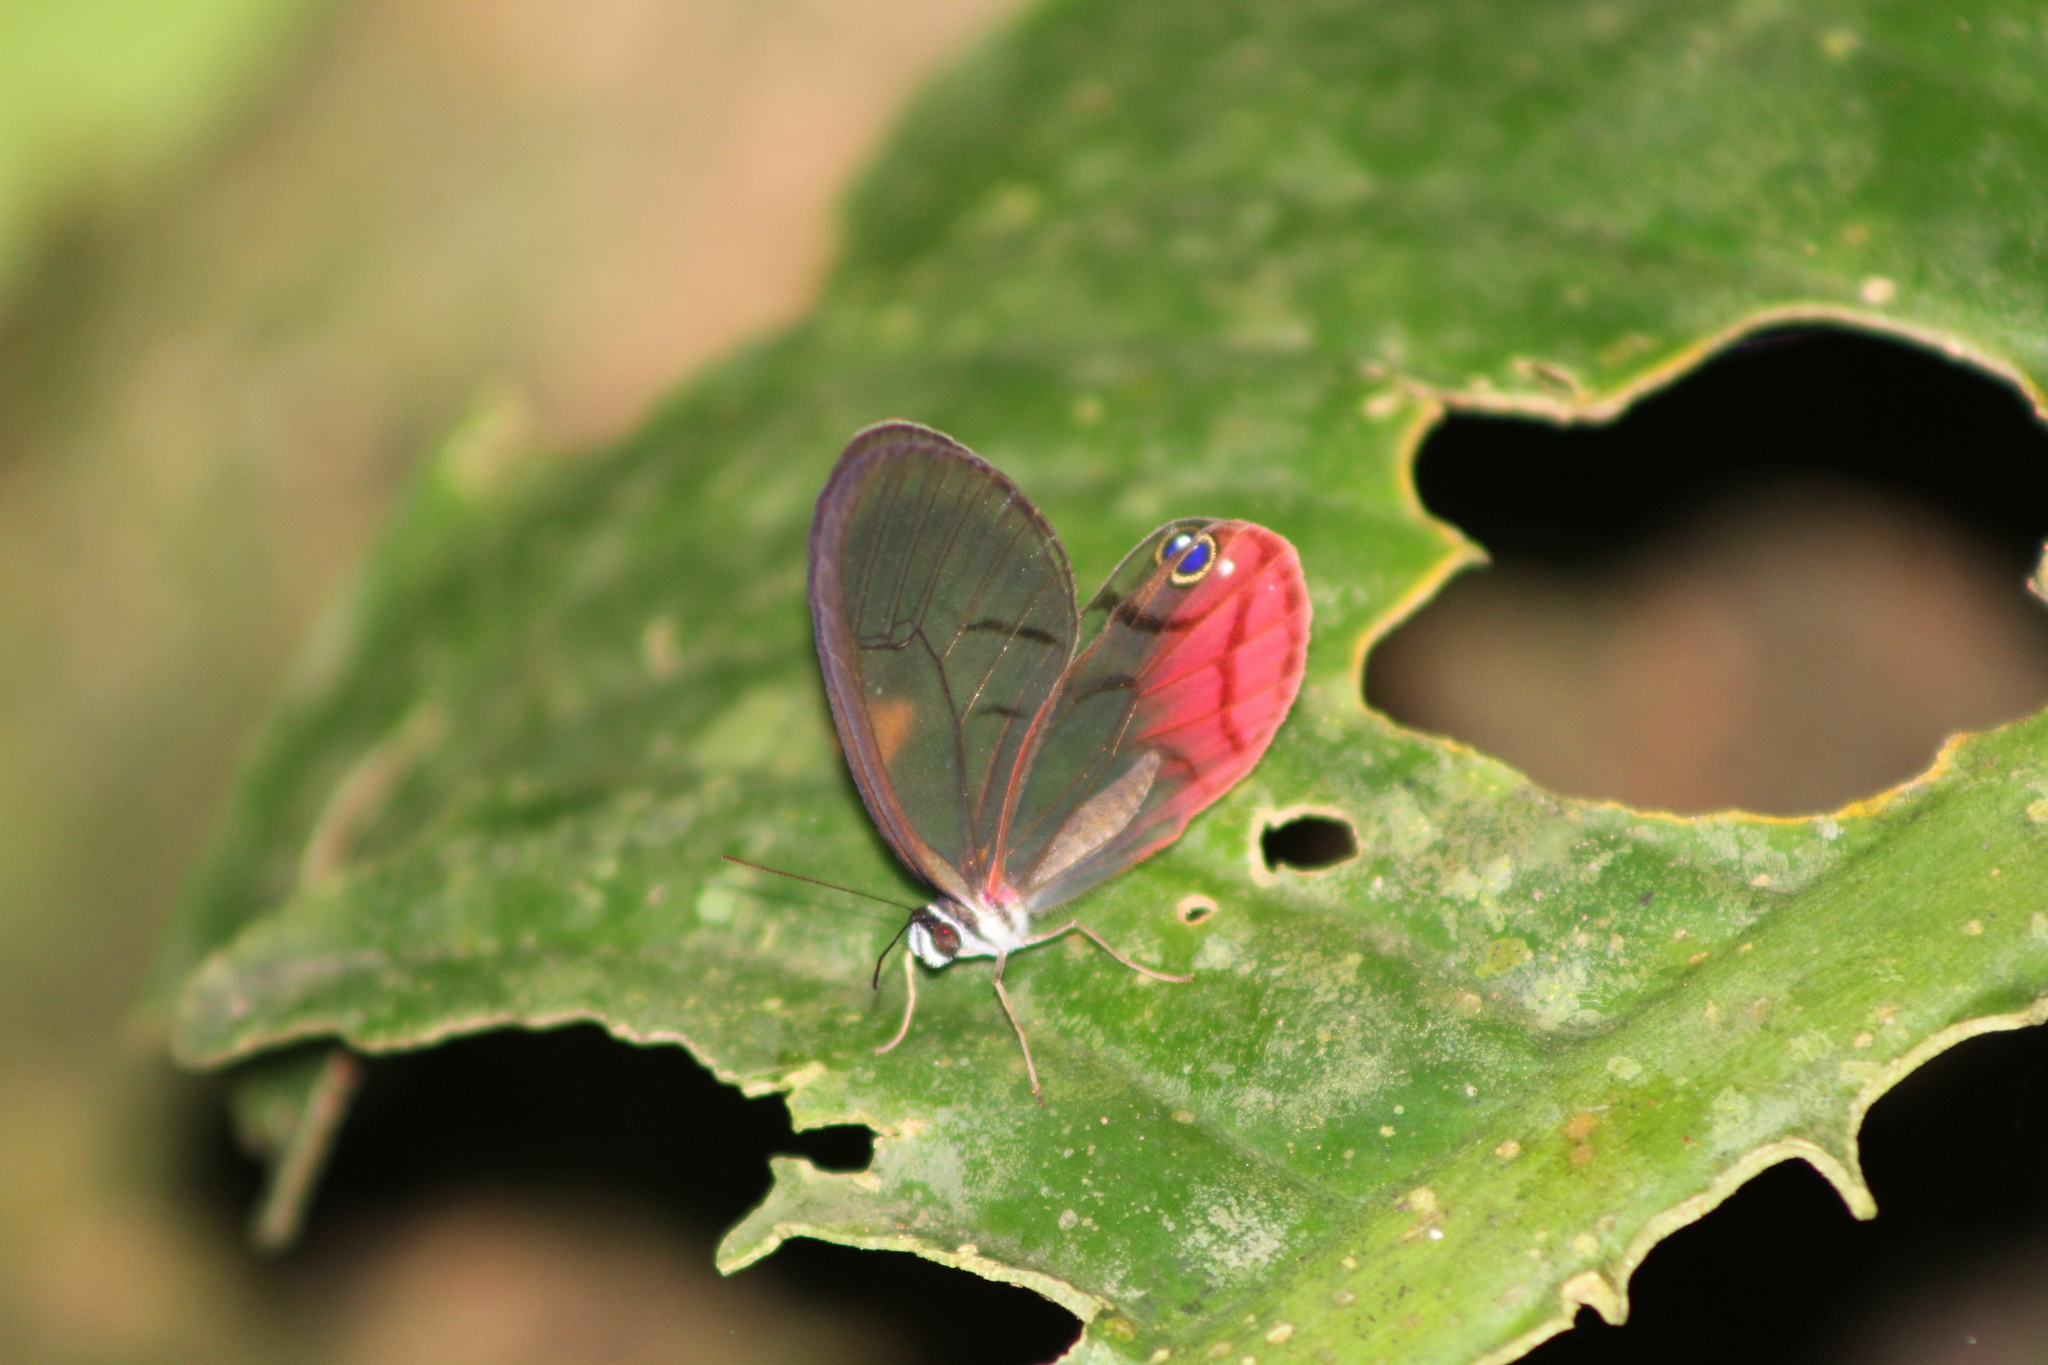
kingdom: Animalia
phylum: Arthropoda
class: Insecta
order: Lepidoptera
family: Nymphalidae
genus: Cithaerias
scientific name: Cithaerias pireta
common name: Rusted clearwing-satyr
